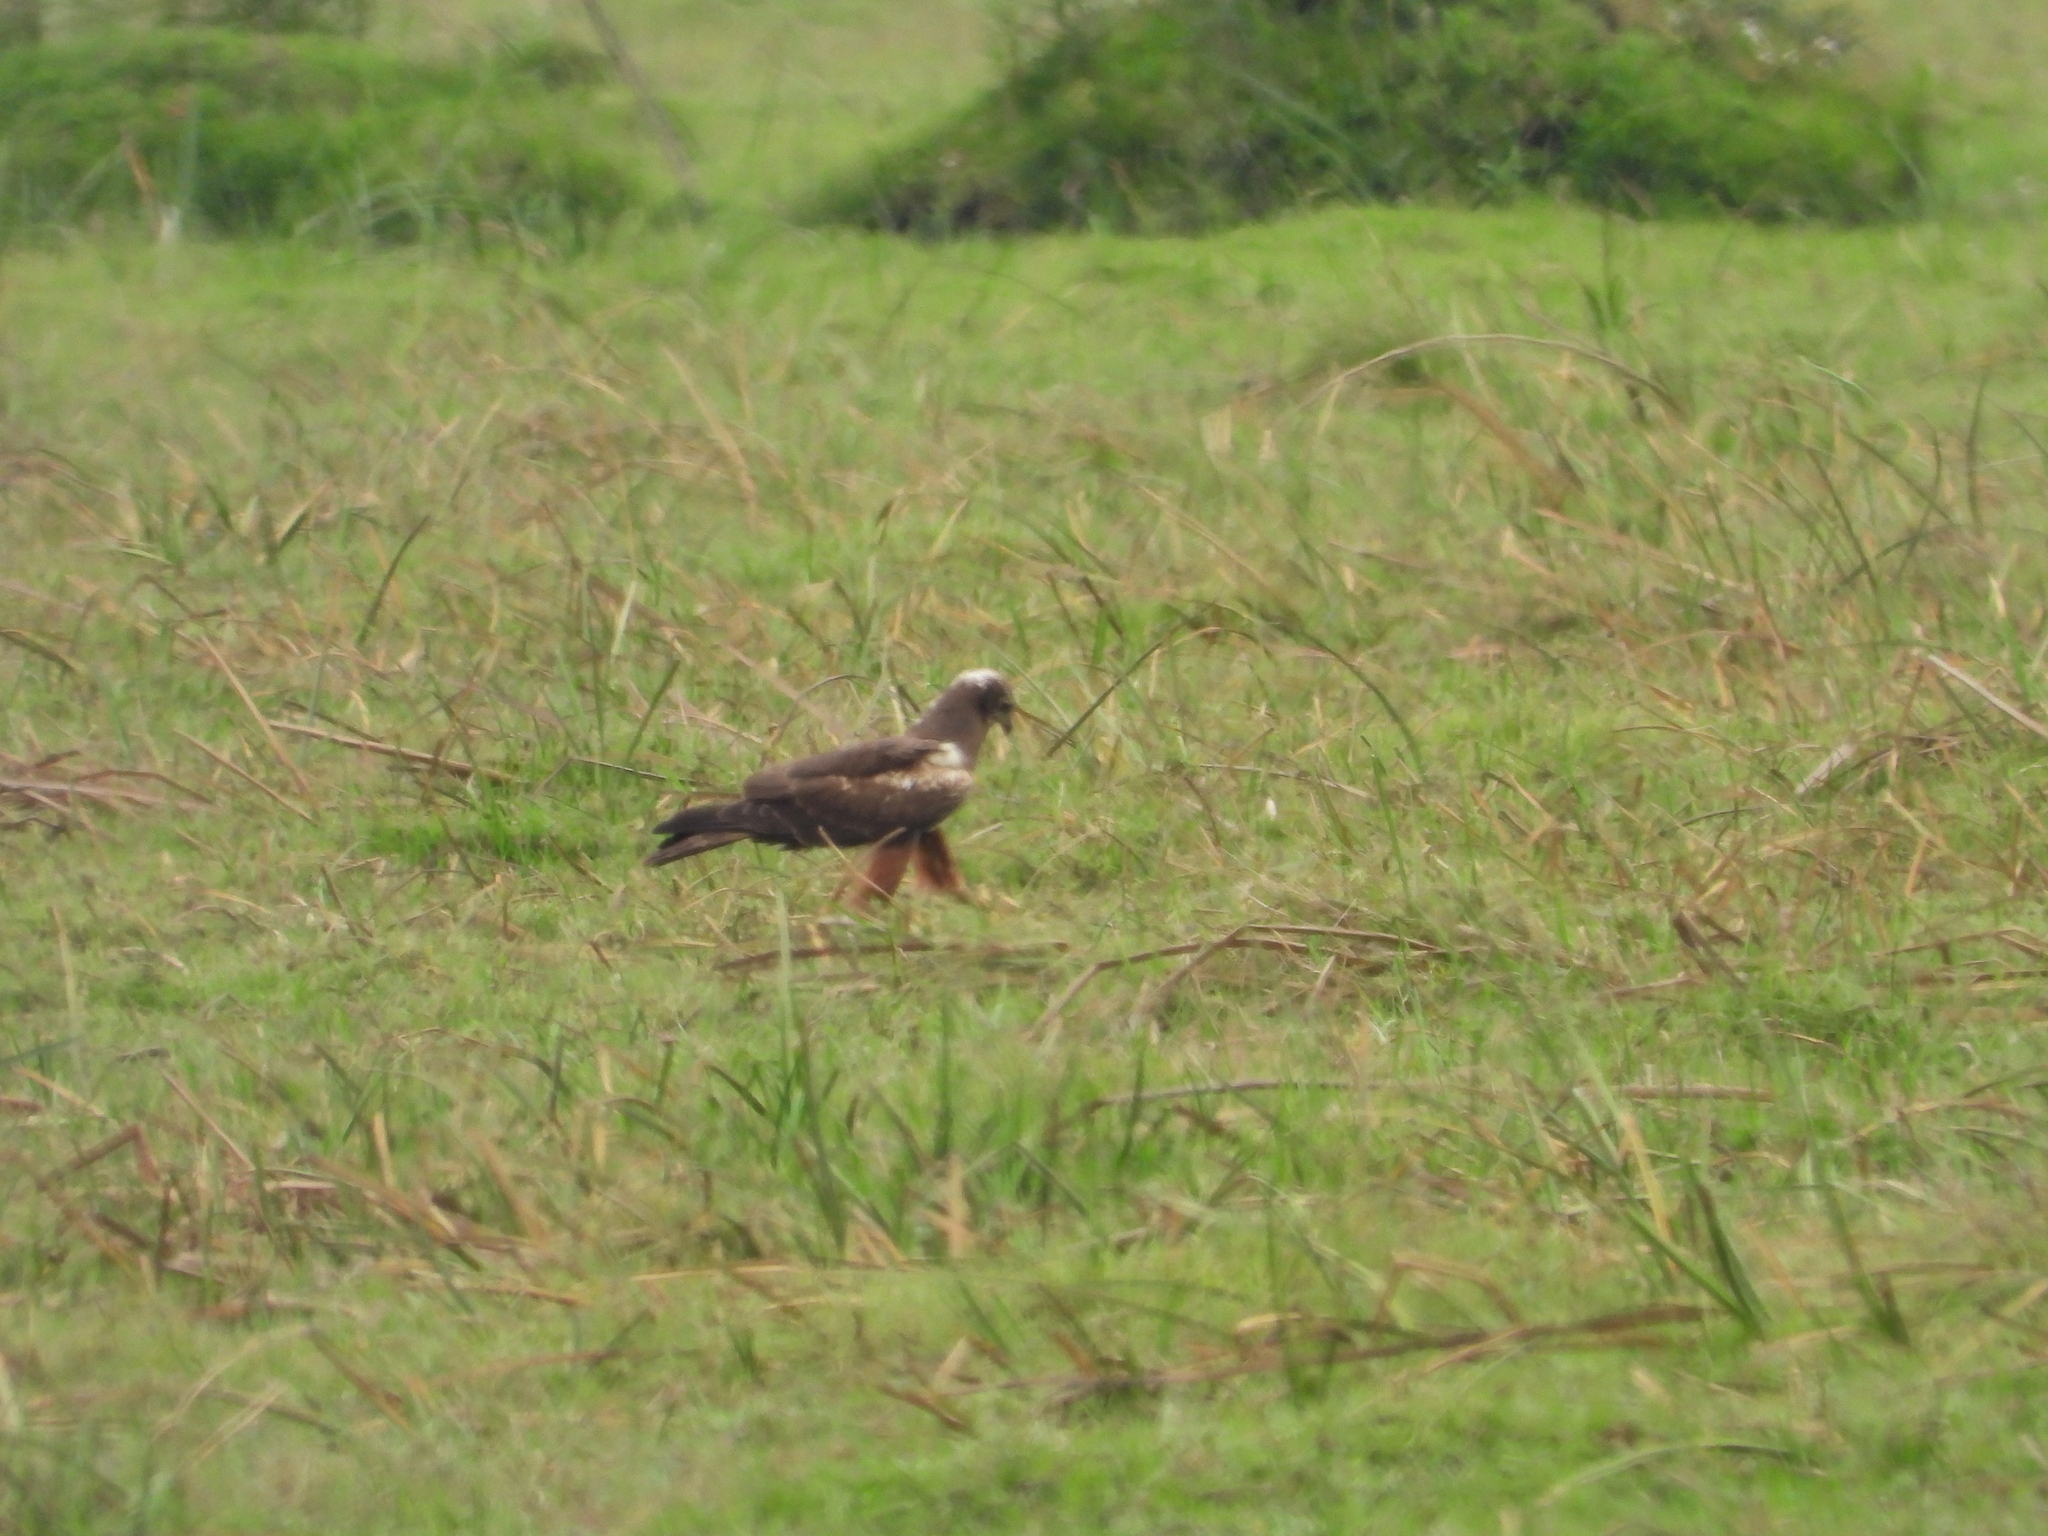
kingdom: Animalia
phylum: Chordata
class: Aves
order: Accipitriformes
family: Accipitridae
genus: Circus
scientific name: Circus ranivorus
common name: African marsh-harrier
